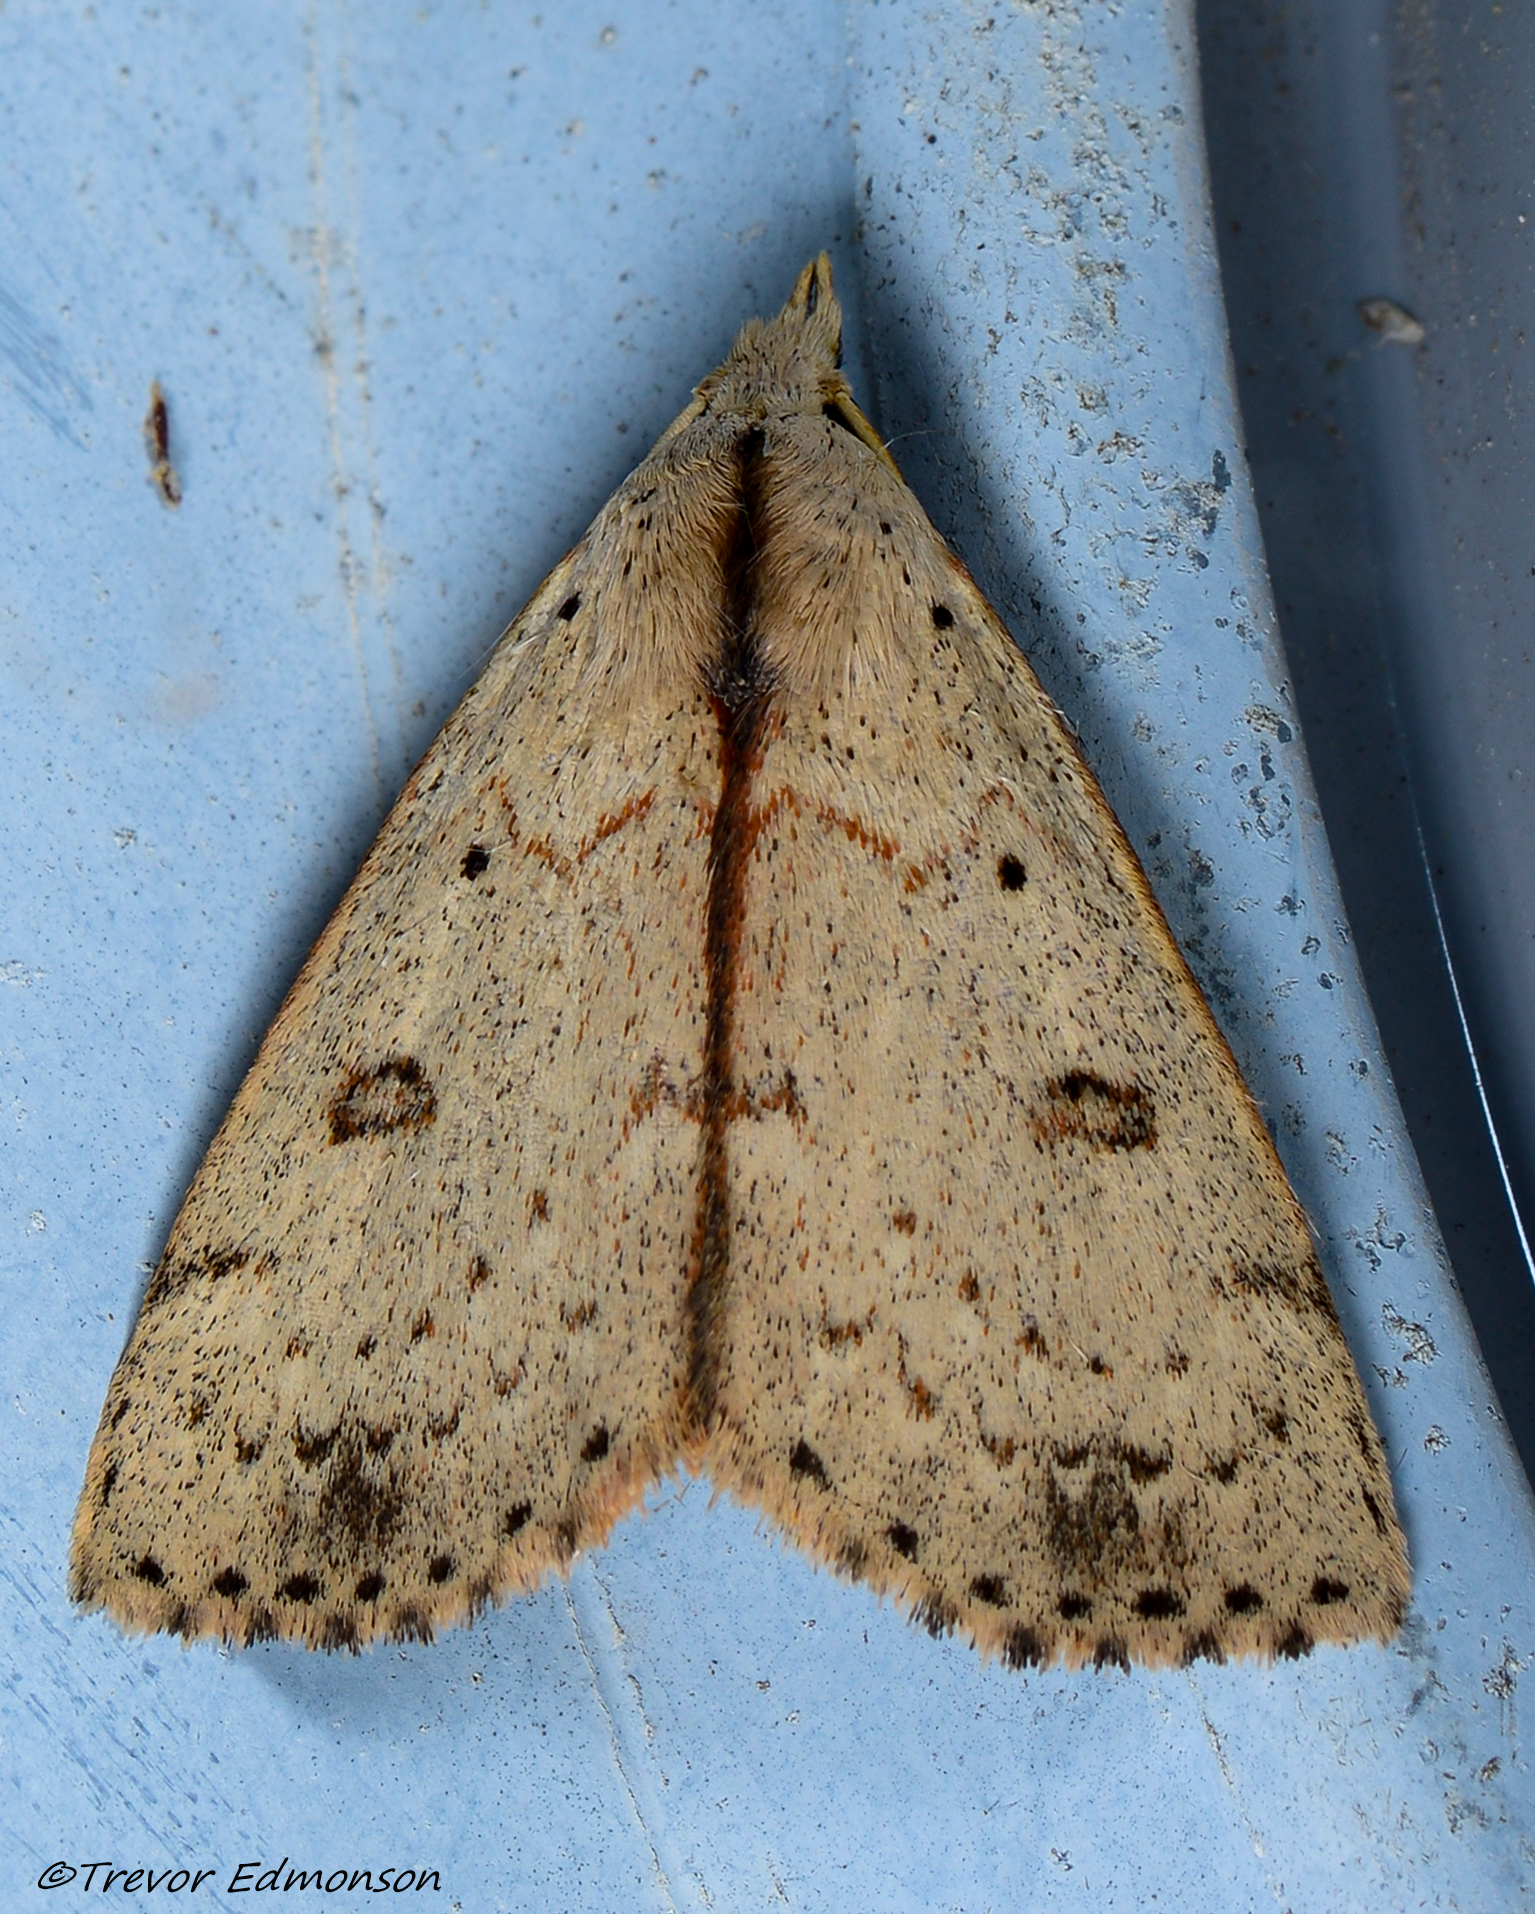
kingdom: Animalia
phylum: Arthropoda
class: Insecta
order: Lepidoptera
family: Erebidae
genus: Scolecocampa
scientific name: Scolecocampa liburna
